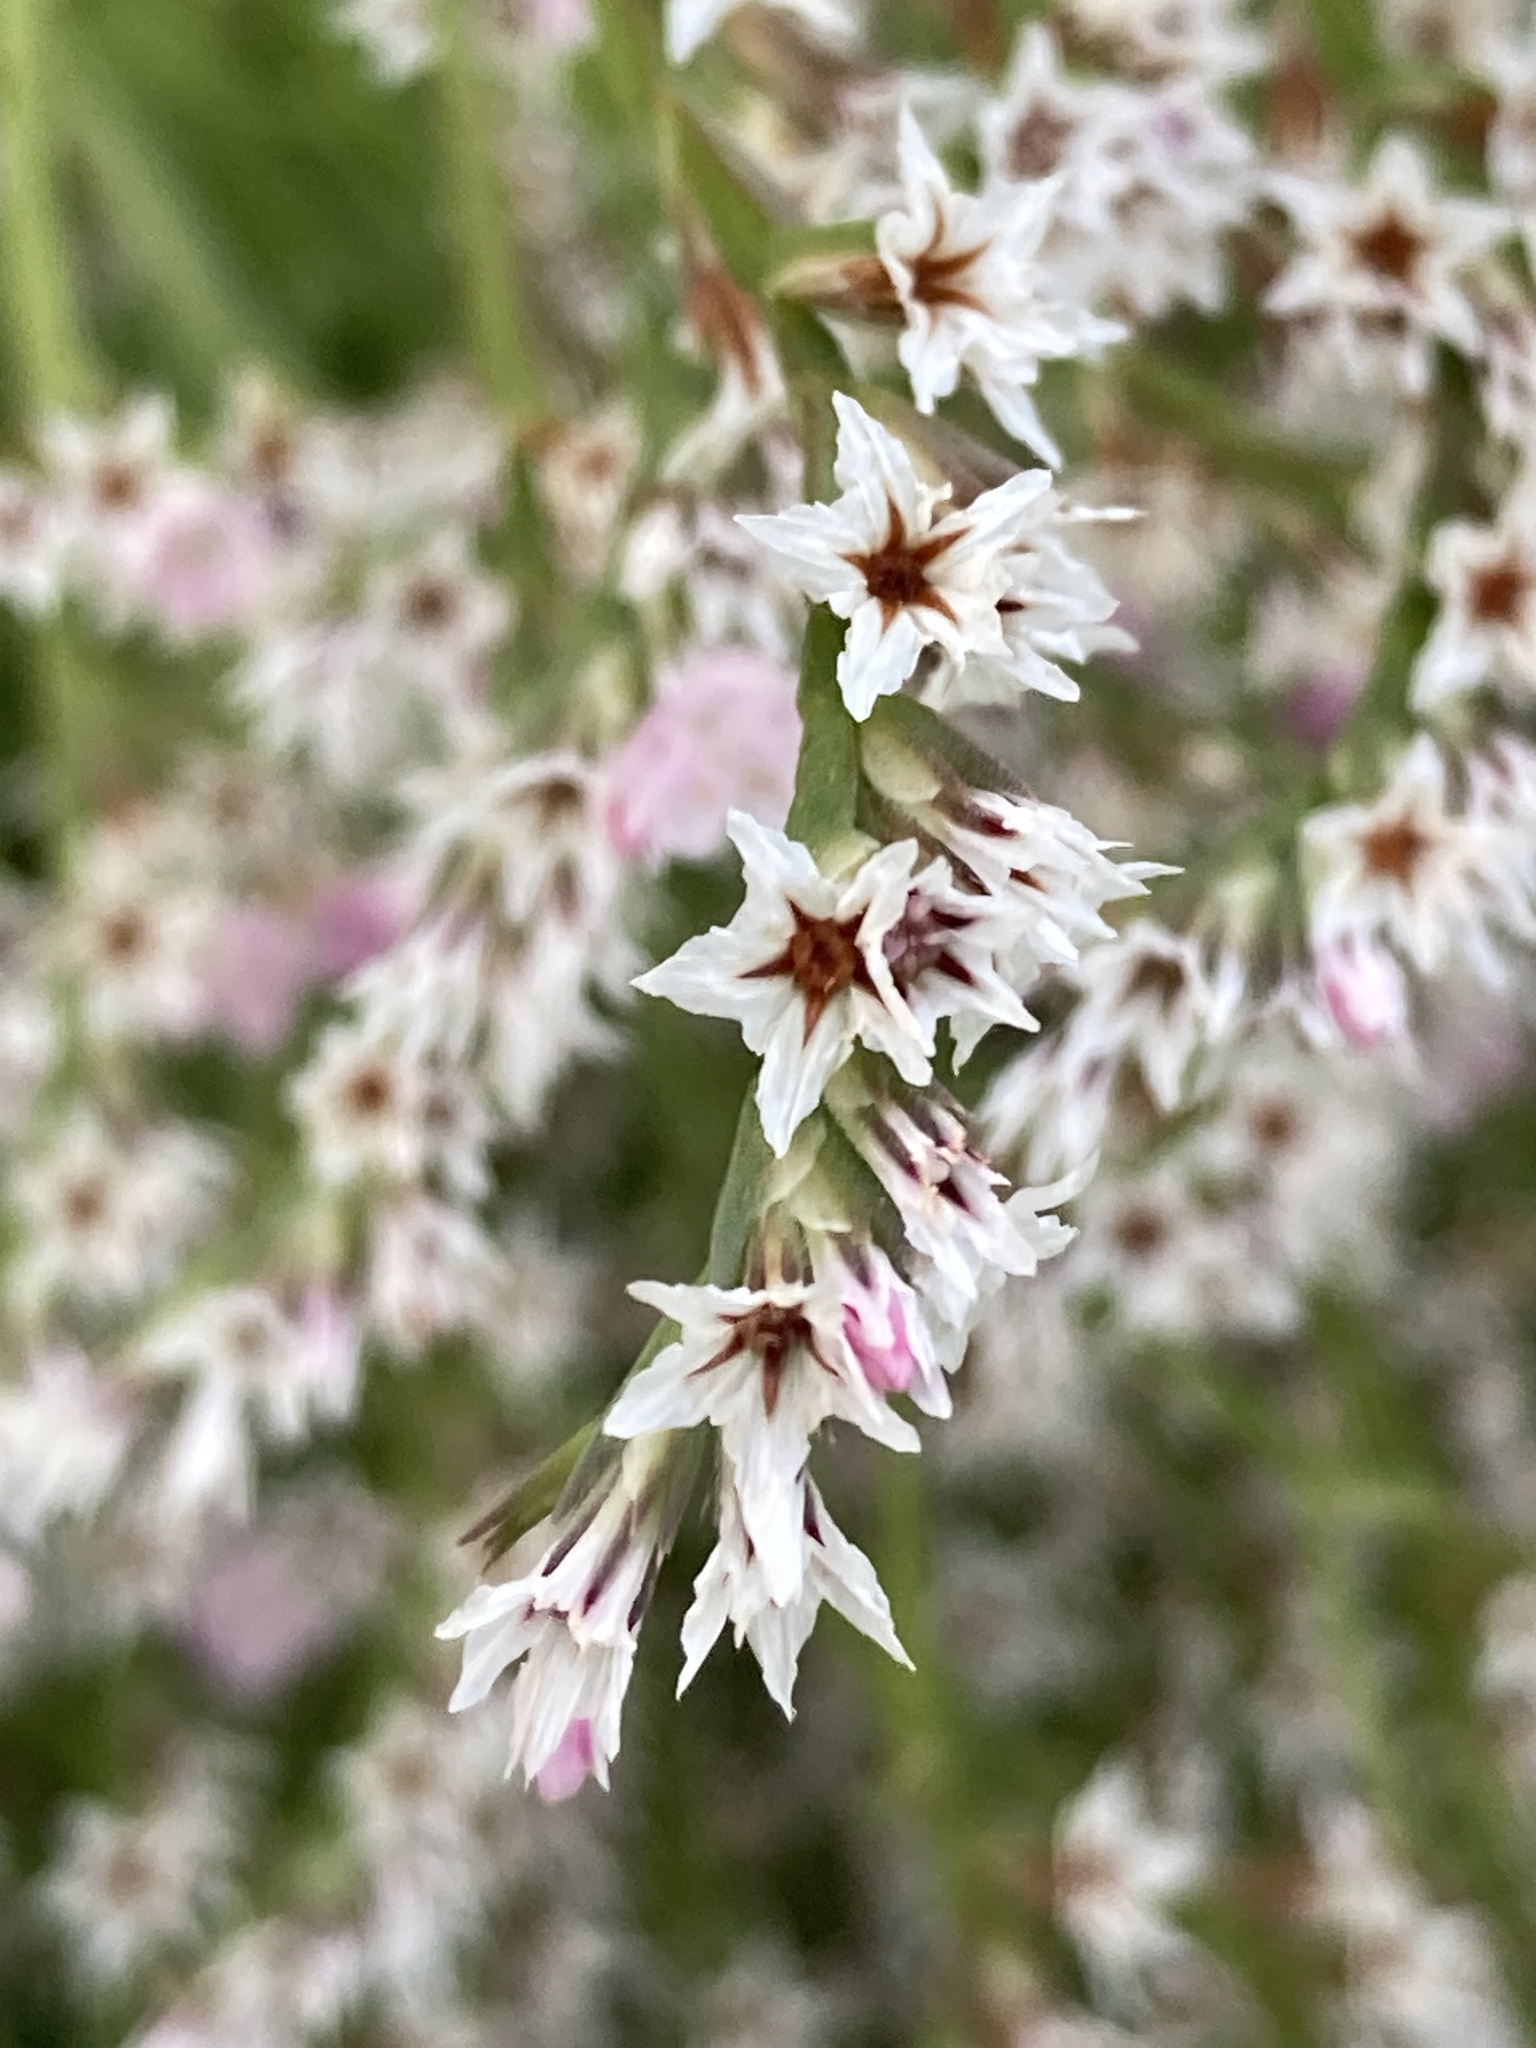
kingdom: Plantae
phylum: Tracheophyta
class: Magnoliopsida
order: Caryophyllales
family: Plumbaginaceae
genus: Goniolimon
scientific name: Goniolimon tataricum
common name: Statice
